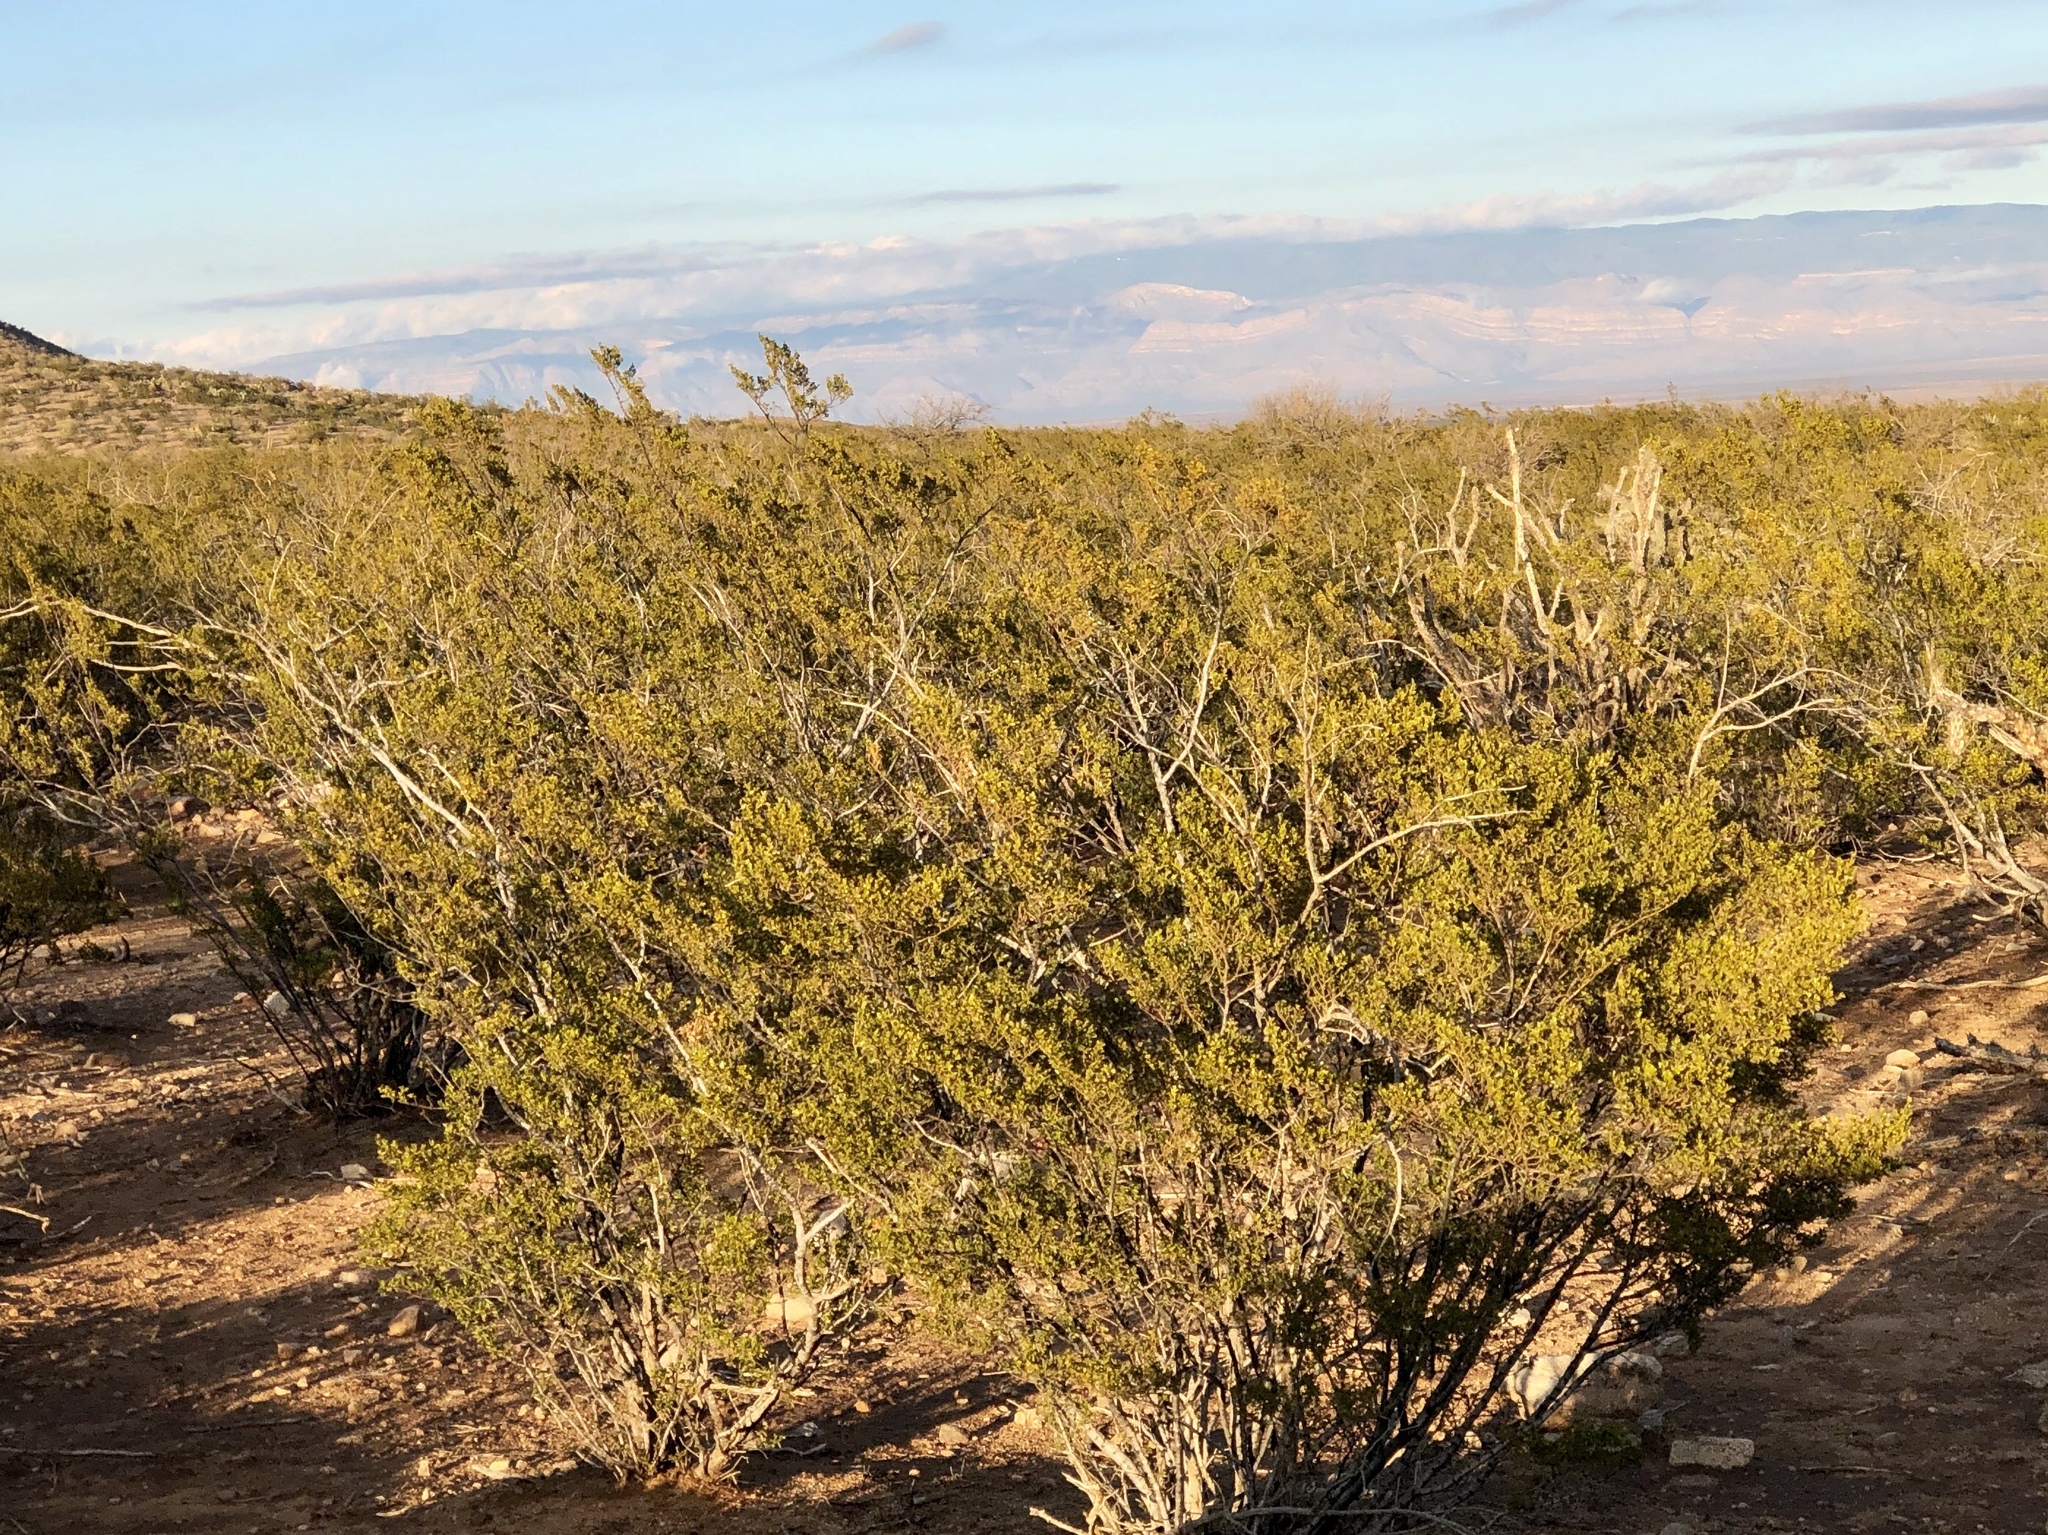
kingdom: Plantae
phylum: Tracheophyta
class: Magnoliopsida
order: Zygophyllales
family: Zygophyllaceae
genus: Larrea
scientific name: Larrea tridentata
